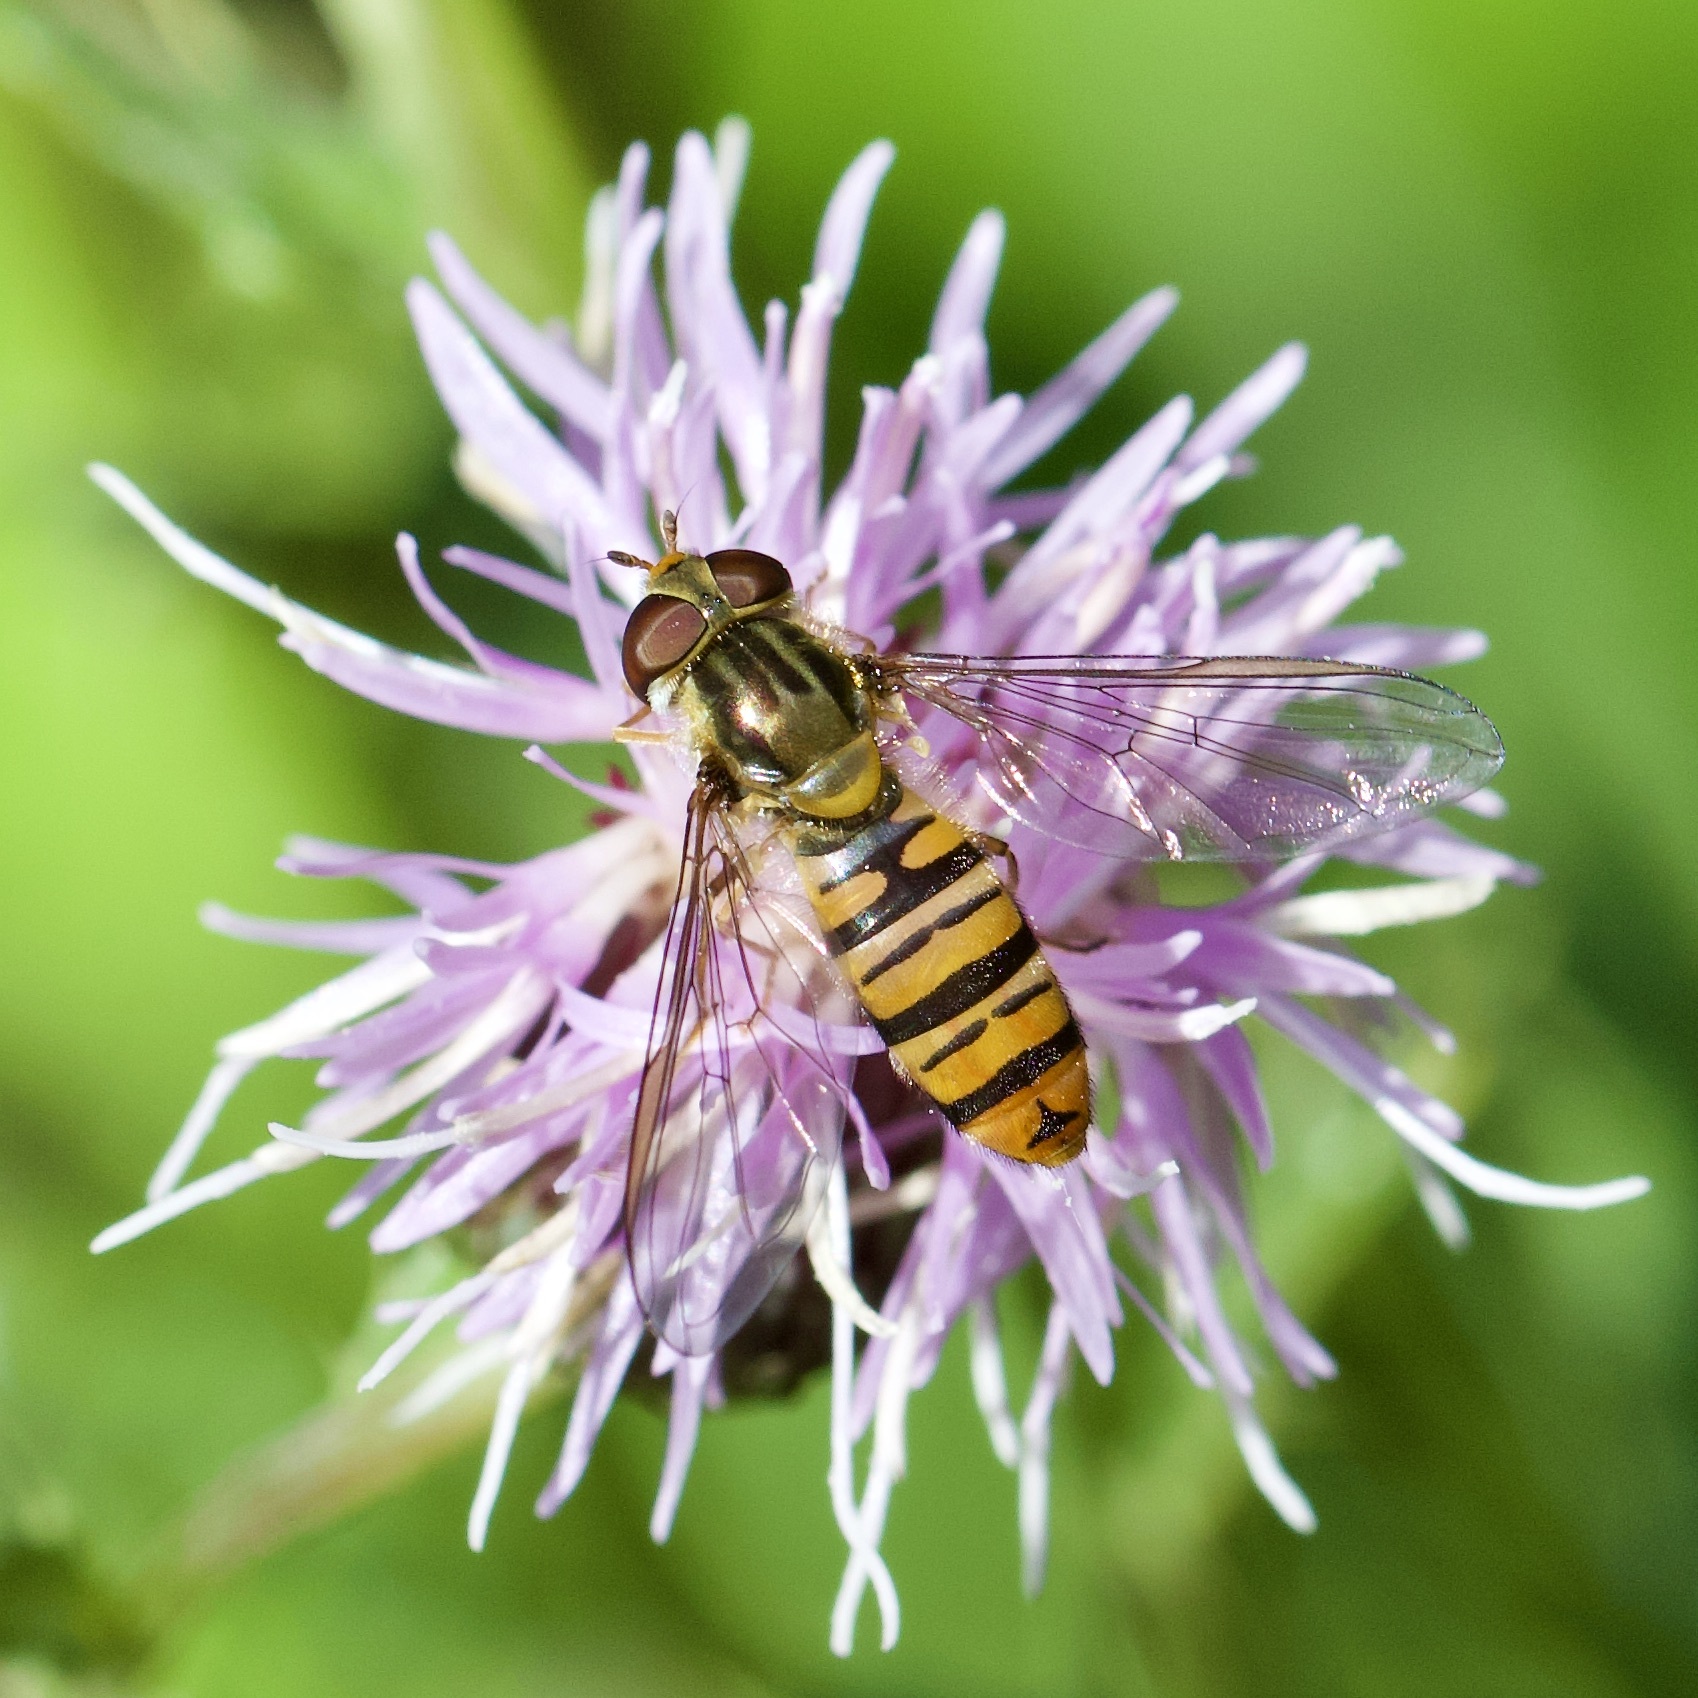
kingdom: Animalia
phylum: Arthropoda
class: Insecta
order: Diptera
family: Syrphidae
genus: Episyrphus
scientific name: Episyrphus balteatus
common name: Marmalade hoverfly
